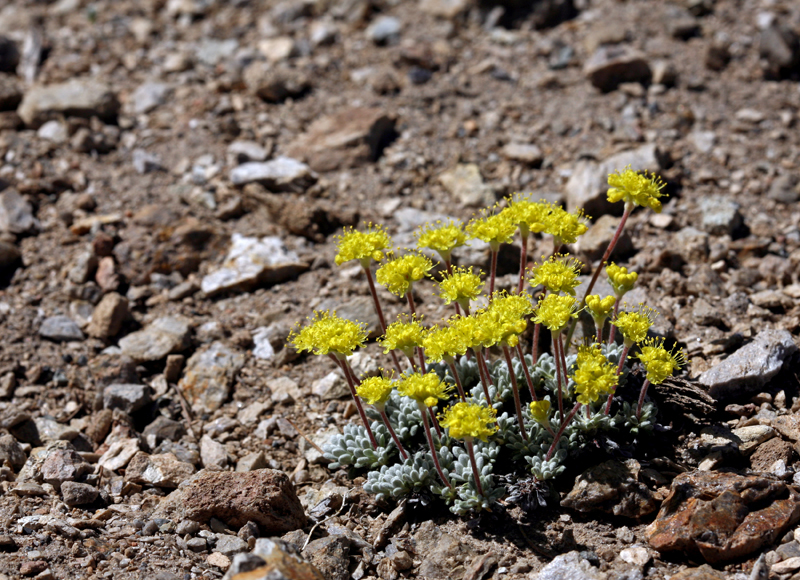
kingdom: Plantae
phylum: Tracheophyta
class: Magnoliopsida
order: Caryophyllales
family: Polygonaceae
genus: Eriogonum
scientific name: Eriogonum caespitosum
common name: Matted wild buckwheat
